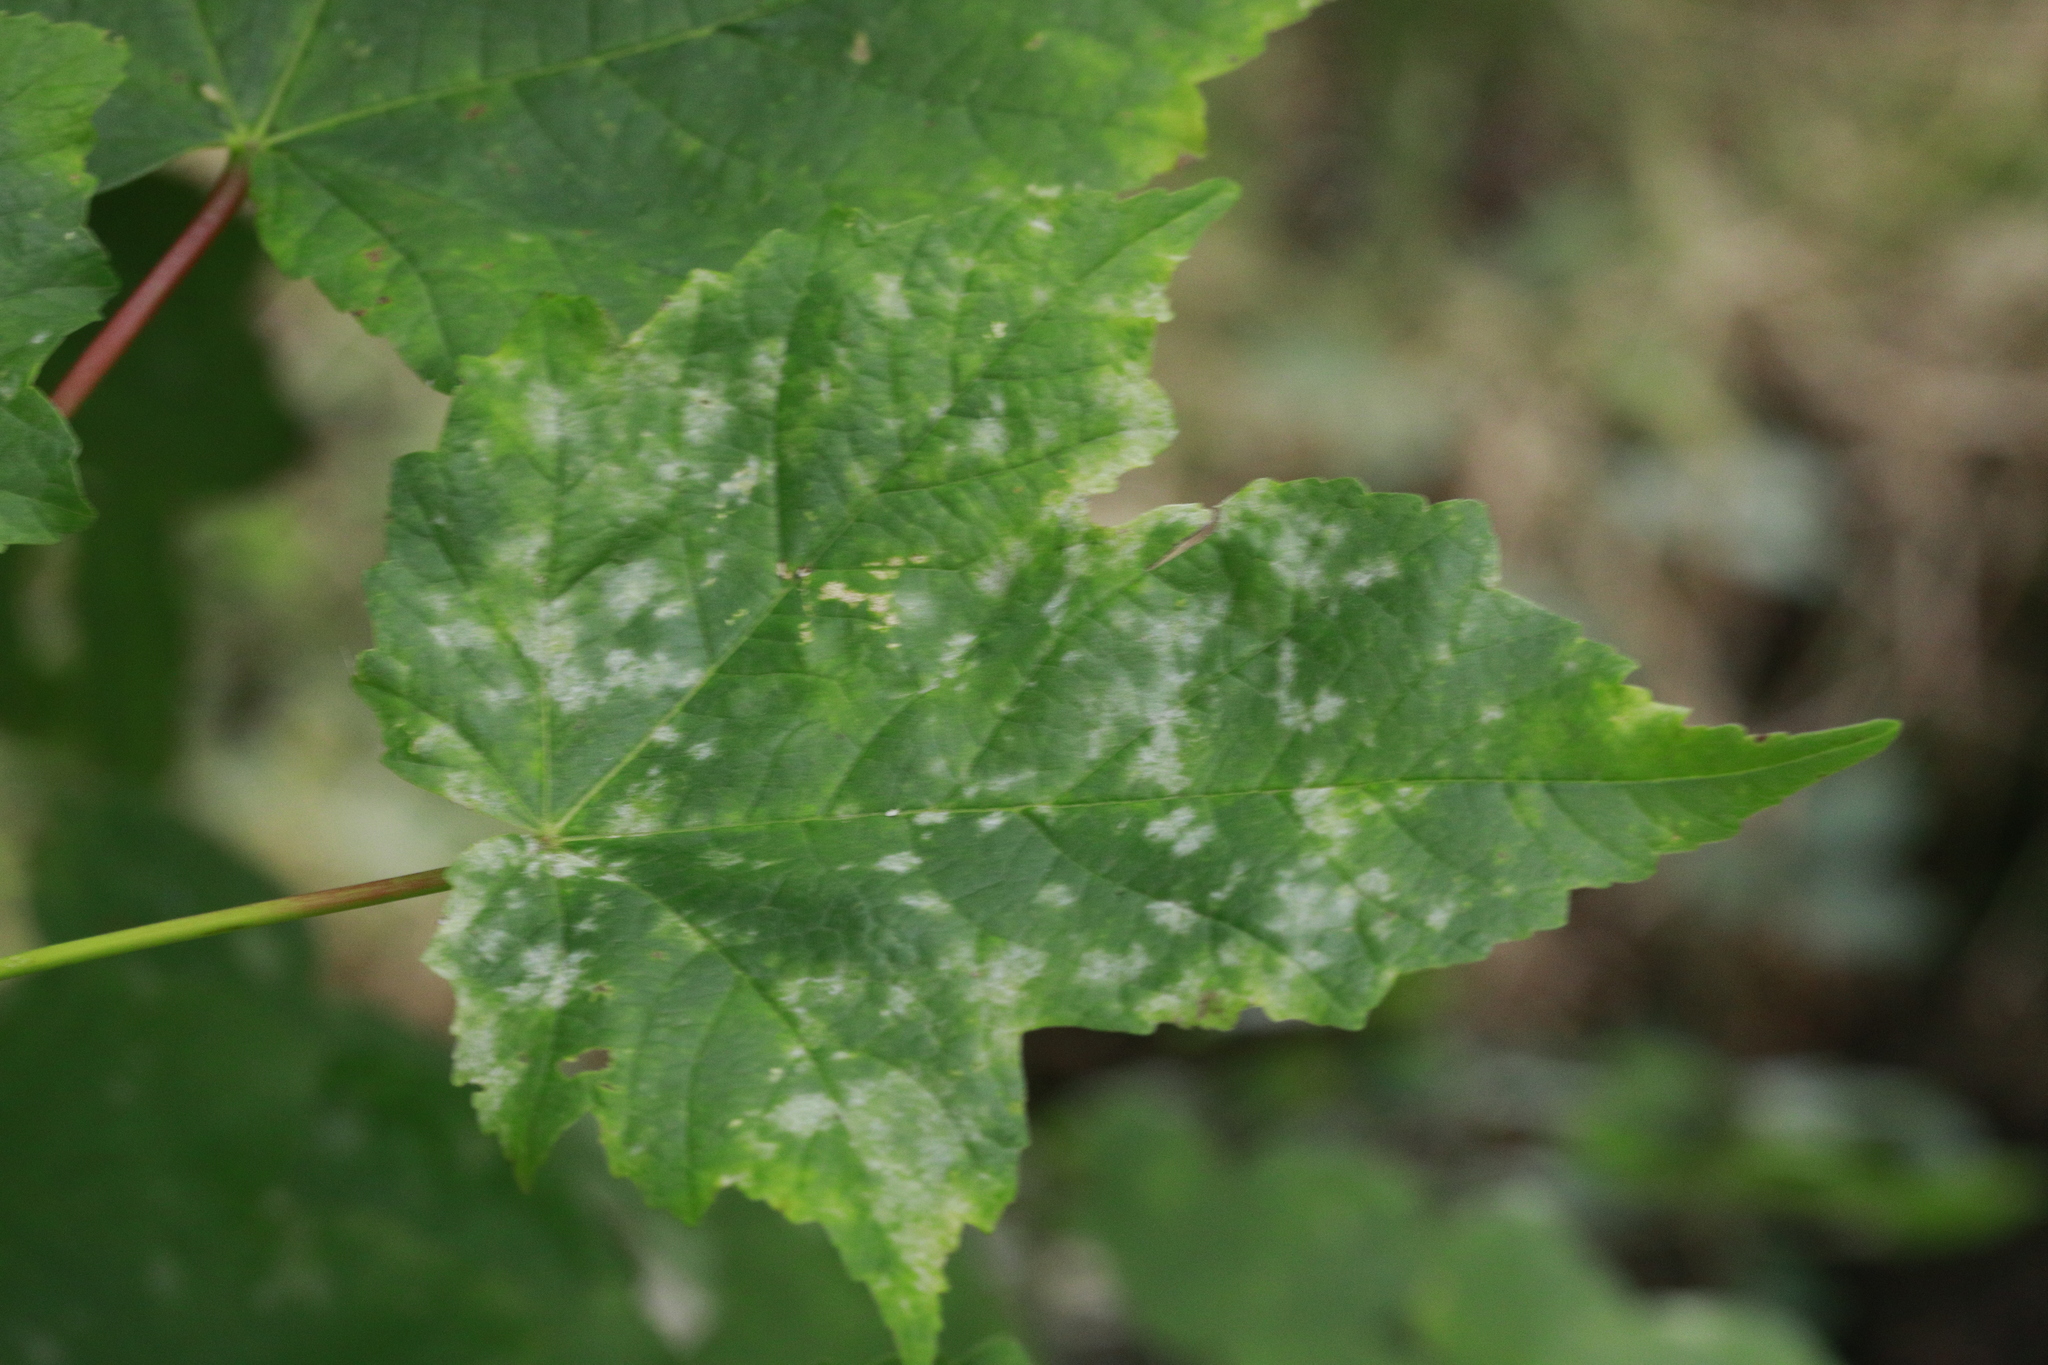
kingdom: Fungi
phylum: Ascomycota
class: Leotiomycetes
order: Helotiales
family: Erysiphaceae
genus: Sawadaea
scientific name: Sawadaea bicornis
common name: Maple mildew
